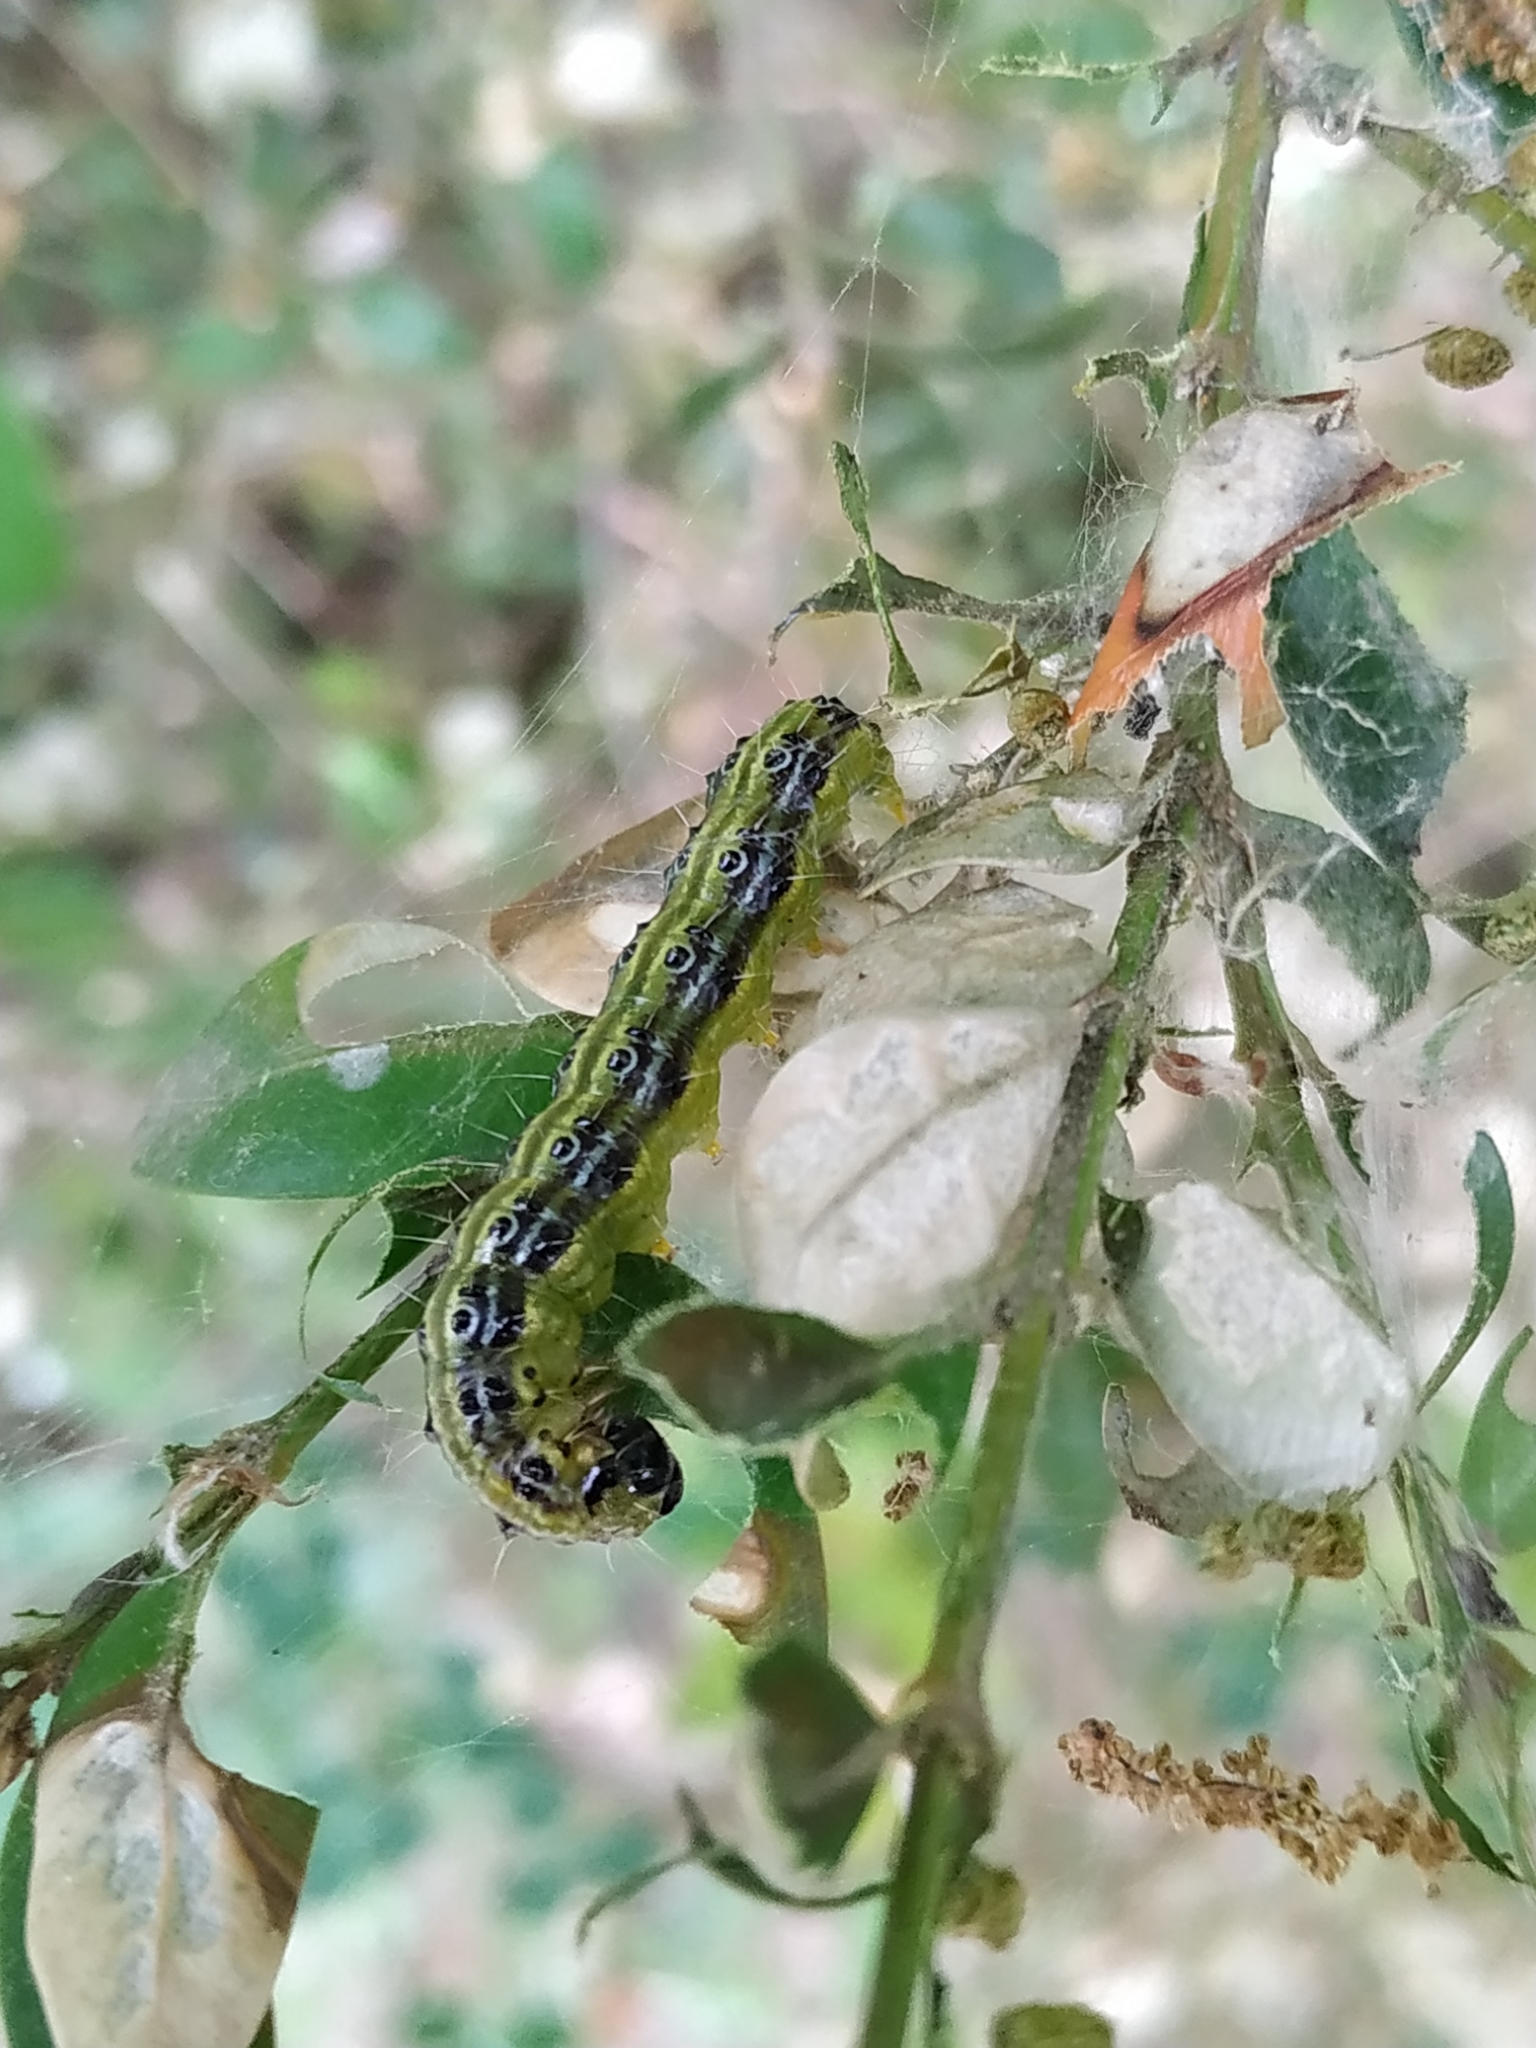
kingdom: Animalia
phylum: Arthropoda
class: Insecta
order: Lepidoptera
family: Crambidae
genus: Cydalima
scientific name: Cydalima perspectalis
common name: Box tree moth
